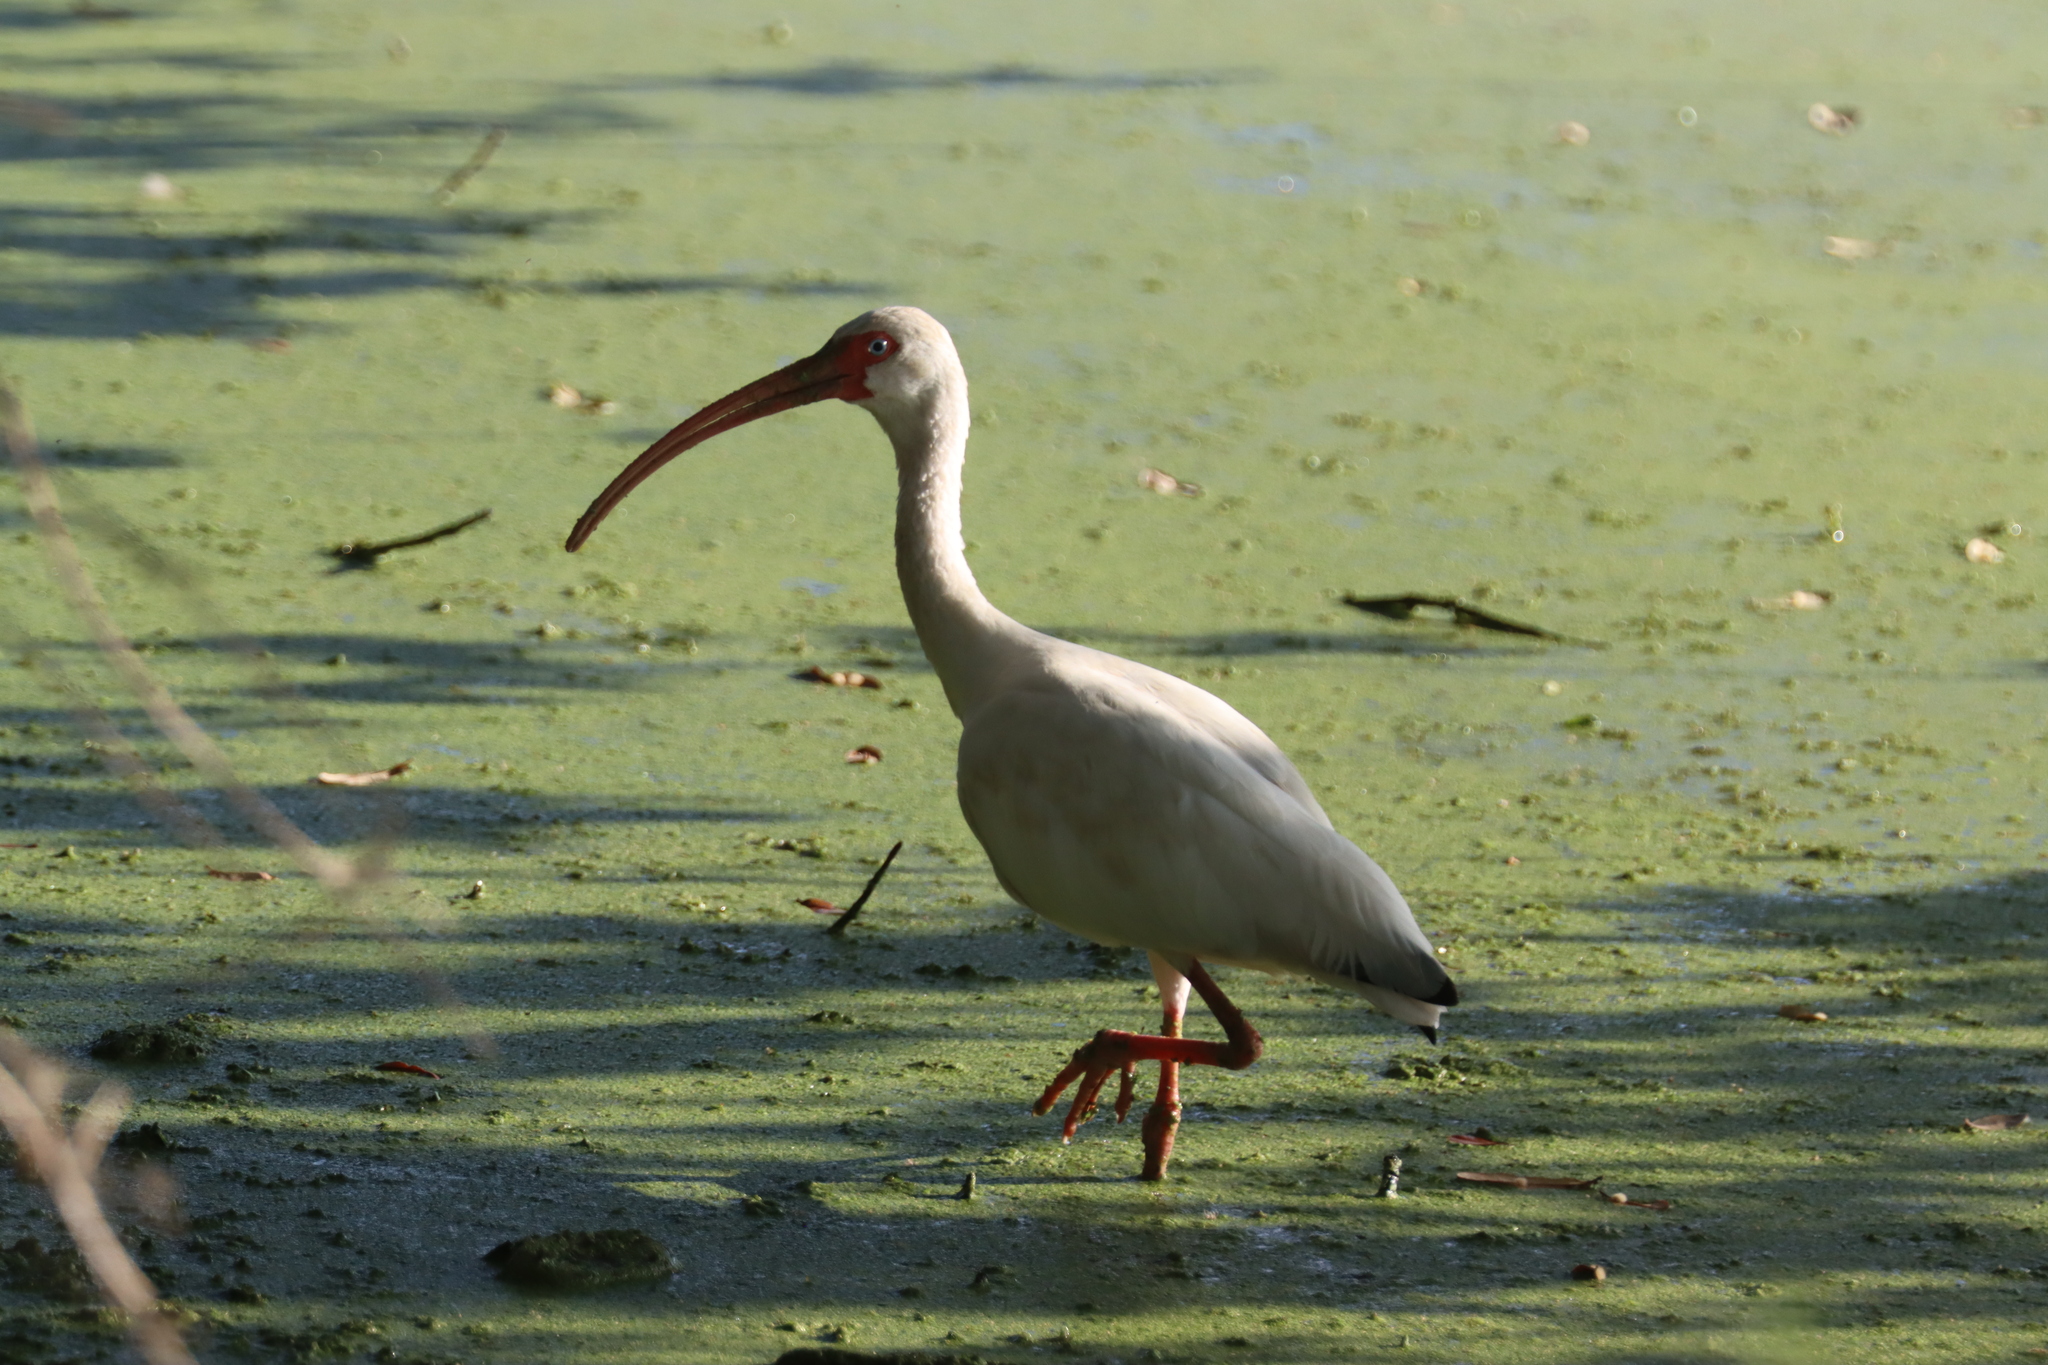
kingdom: Animalia
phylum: Chordata
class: Aves
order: Pelecaniformes
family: Threskiornithidae
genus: Eudocimus
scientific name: Eudocimus albus
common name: White ibis
